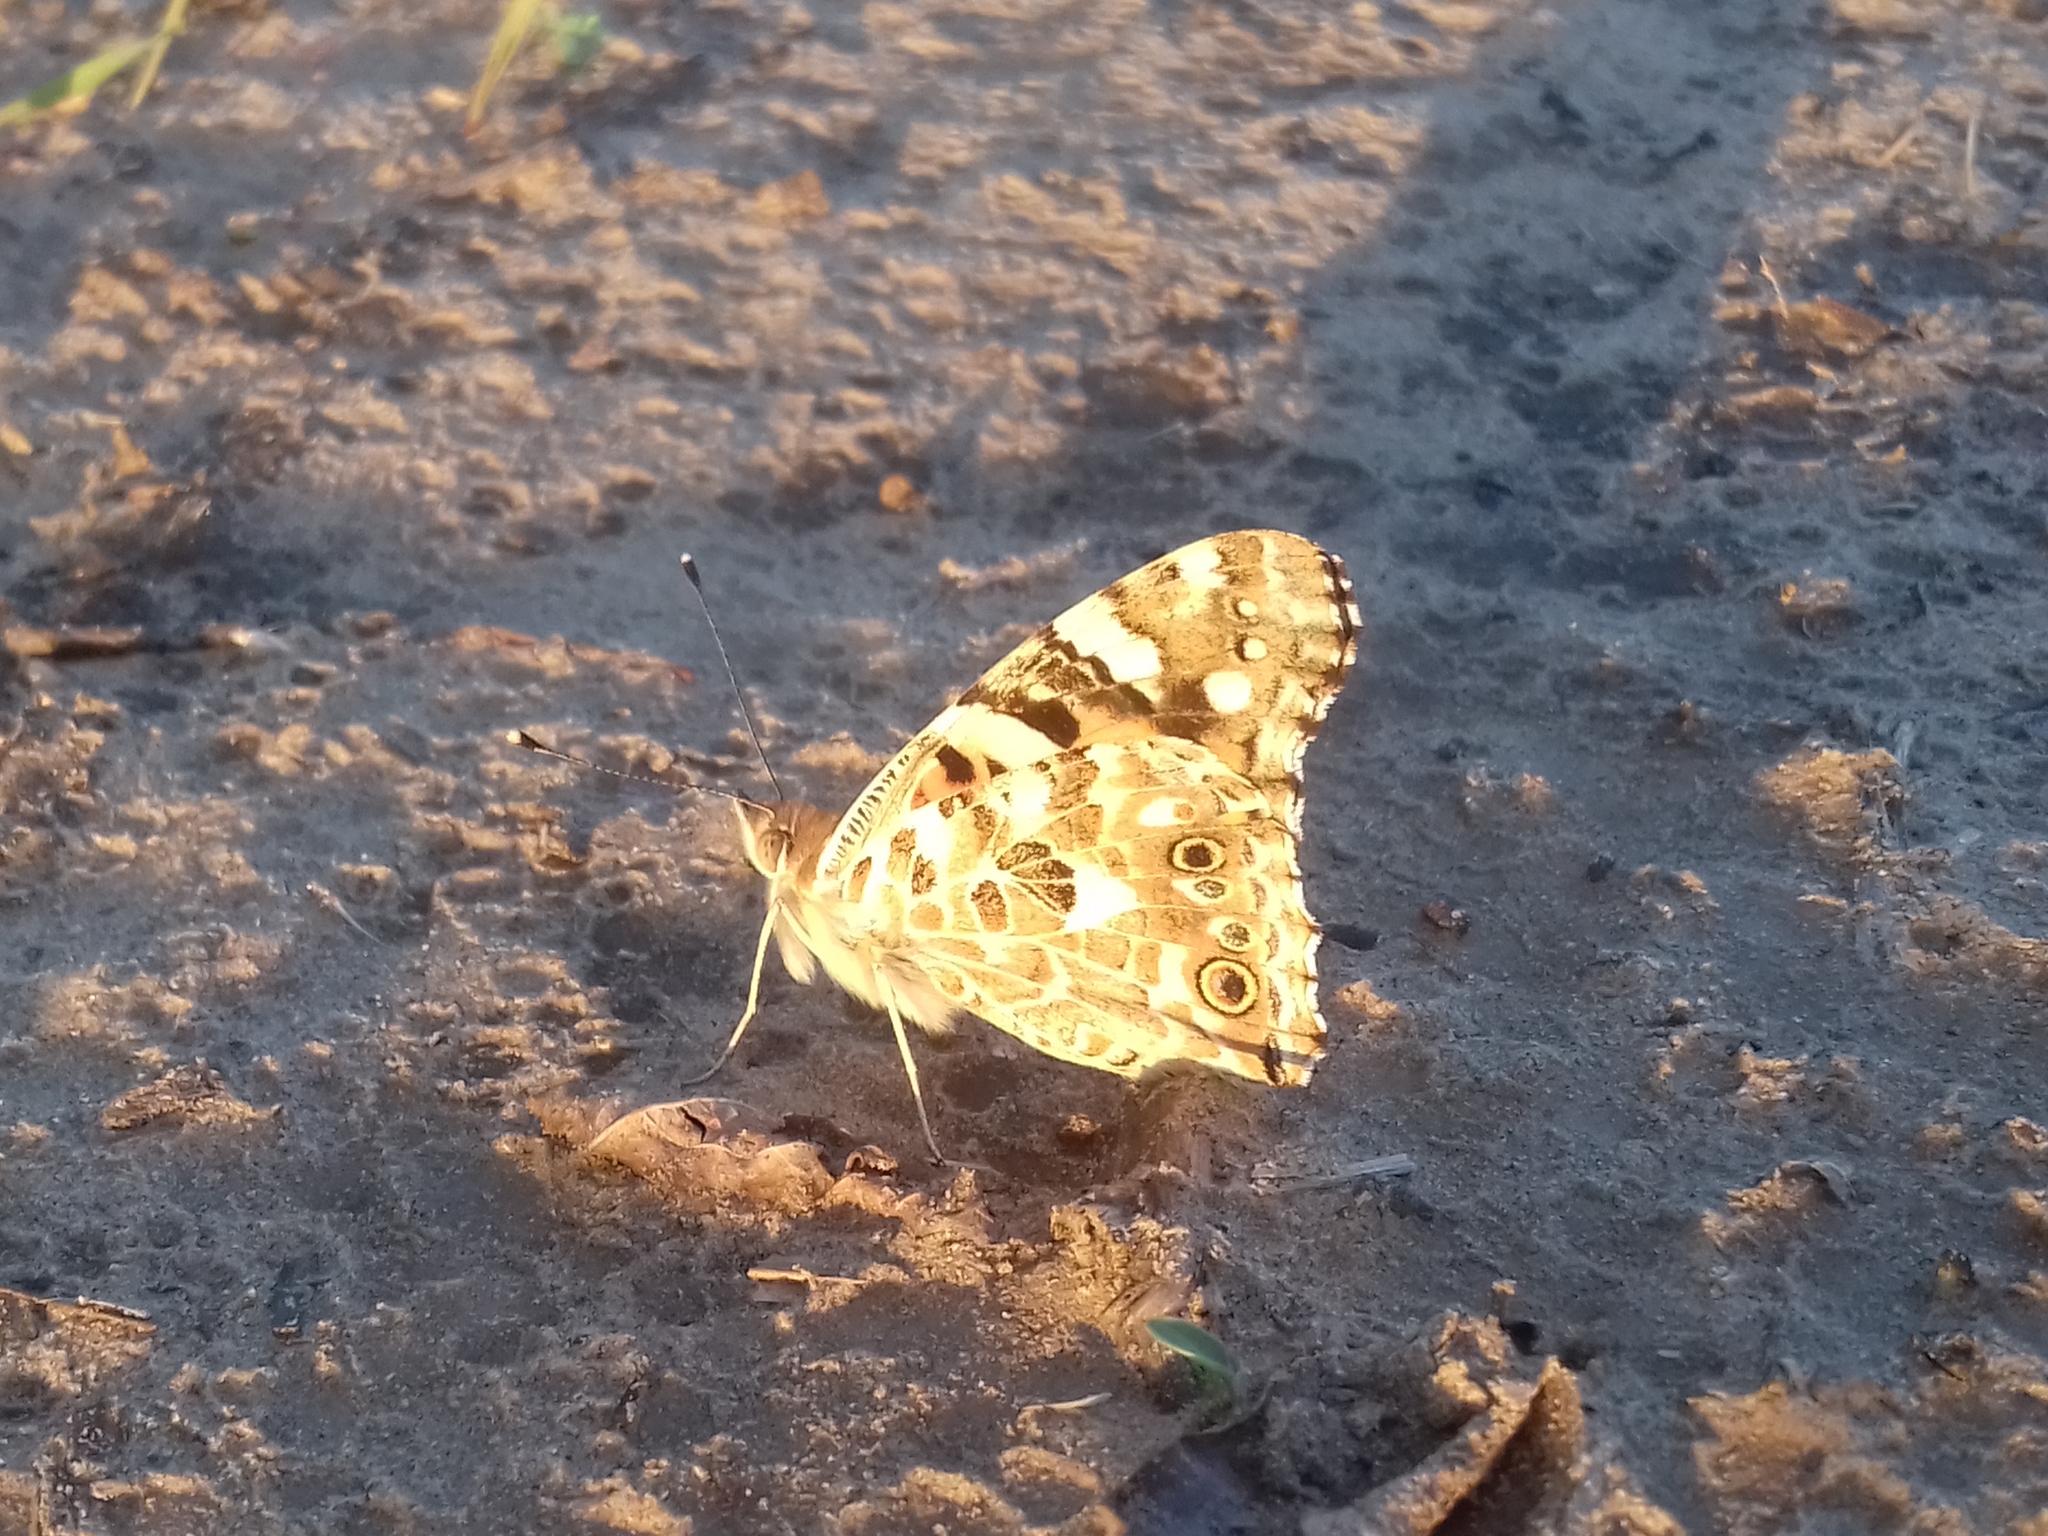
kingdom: Animalia
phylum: Arthropoda
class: Insecta
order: Lepidoptera
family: Nymphalidae
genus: Vanessa
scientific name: Vanessa cardui
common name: Painted lady
